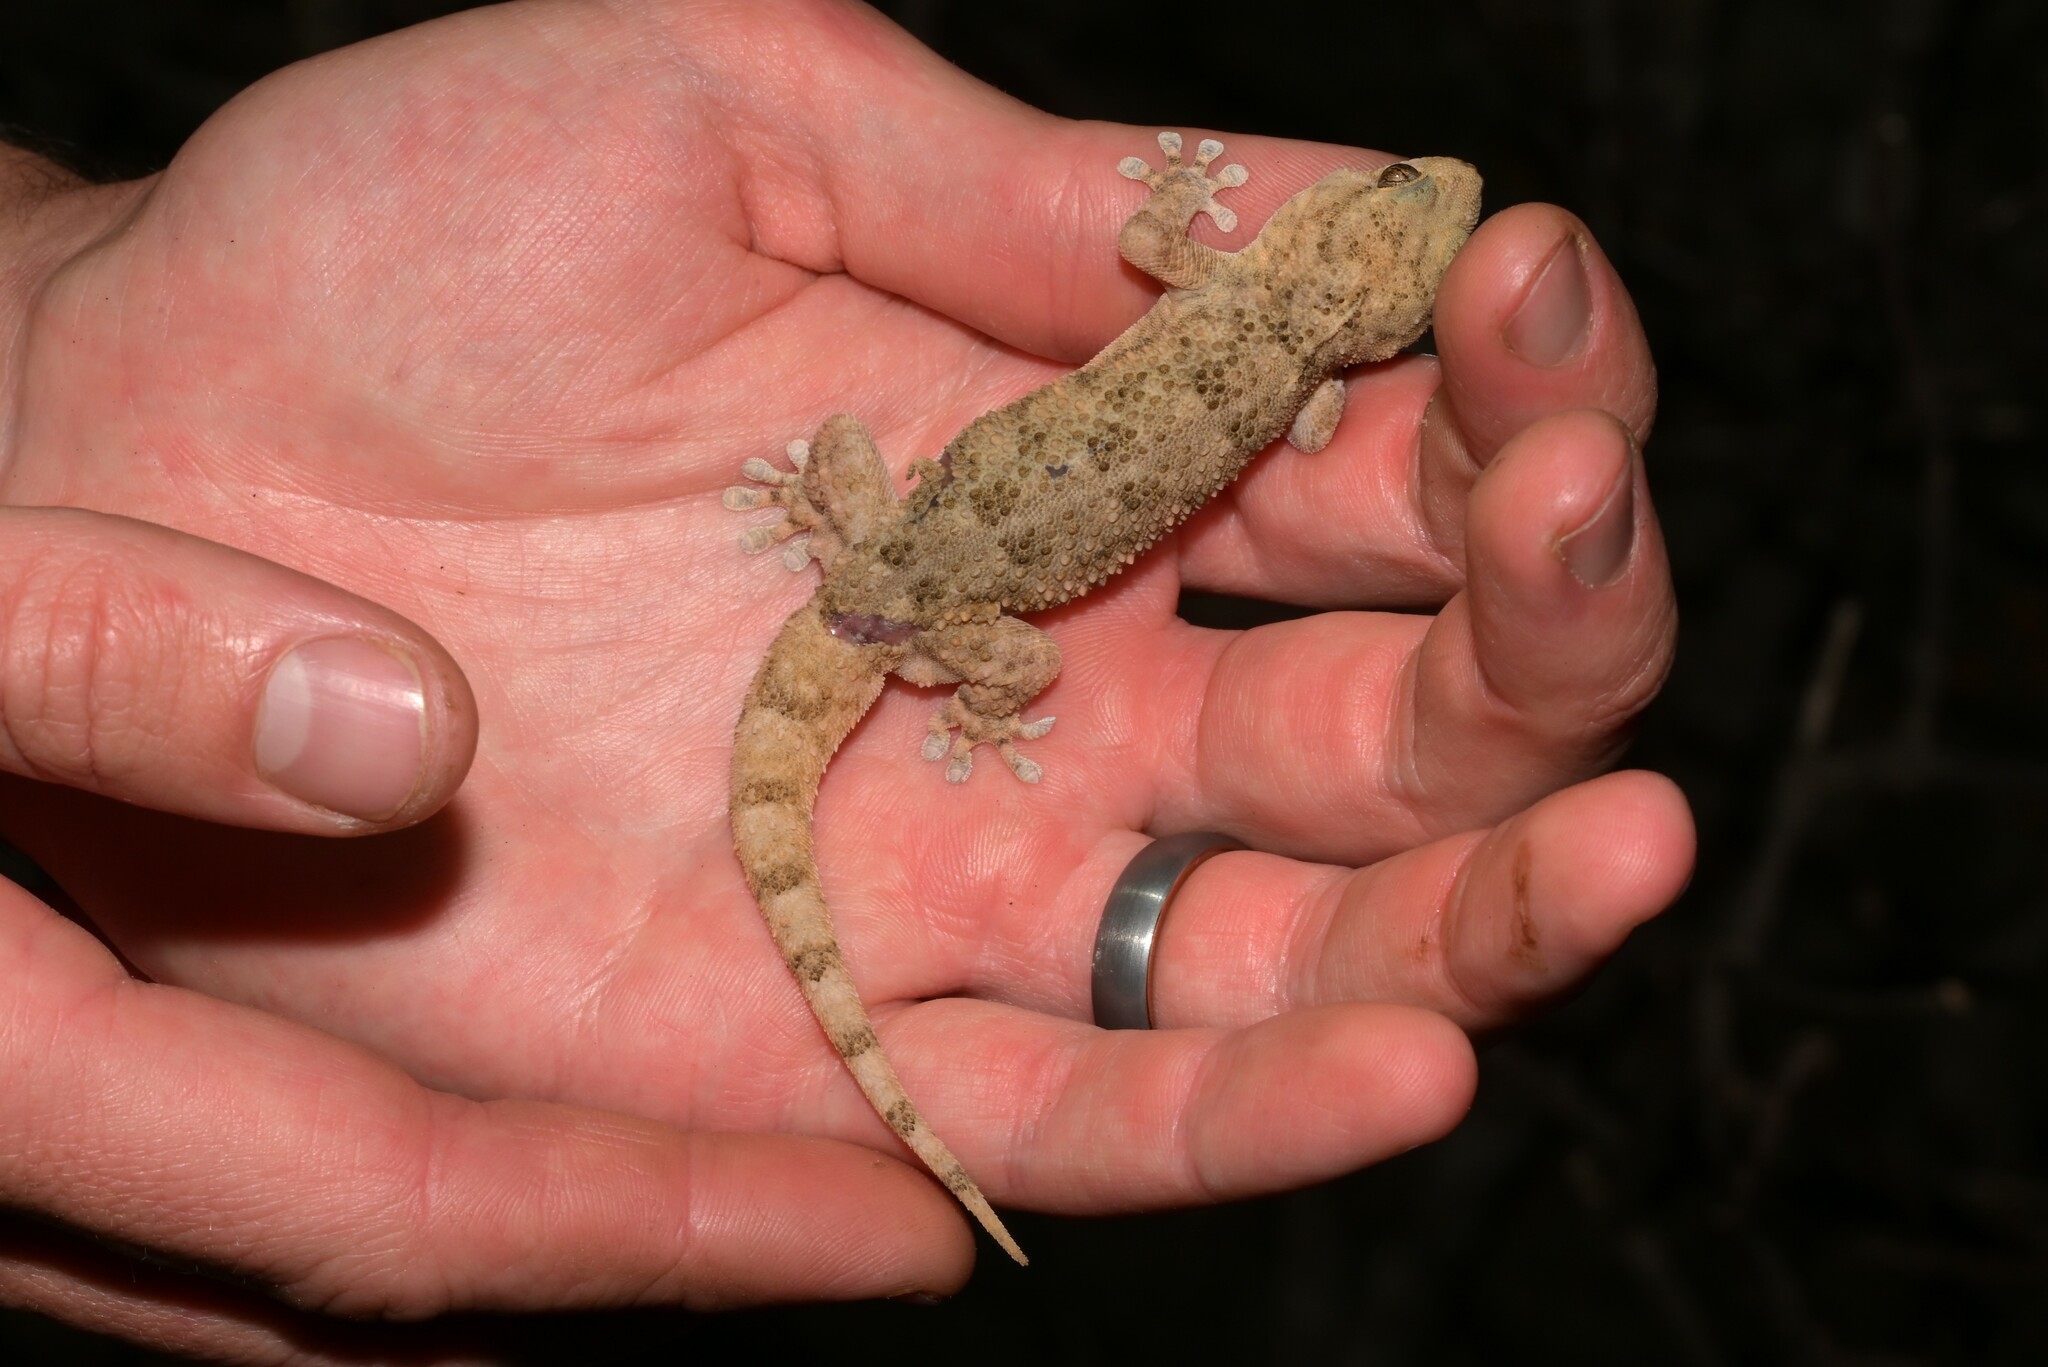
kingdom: Animalia
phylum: Chordata
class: Squamata
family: Gekkonidae
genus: Elasmodactylus
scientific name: Elasmodactylus tuberculosus
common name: Warty thick-toed gecko
